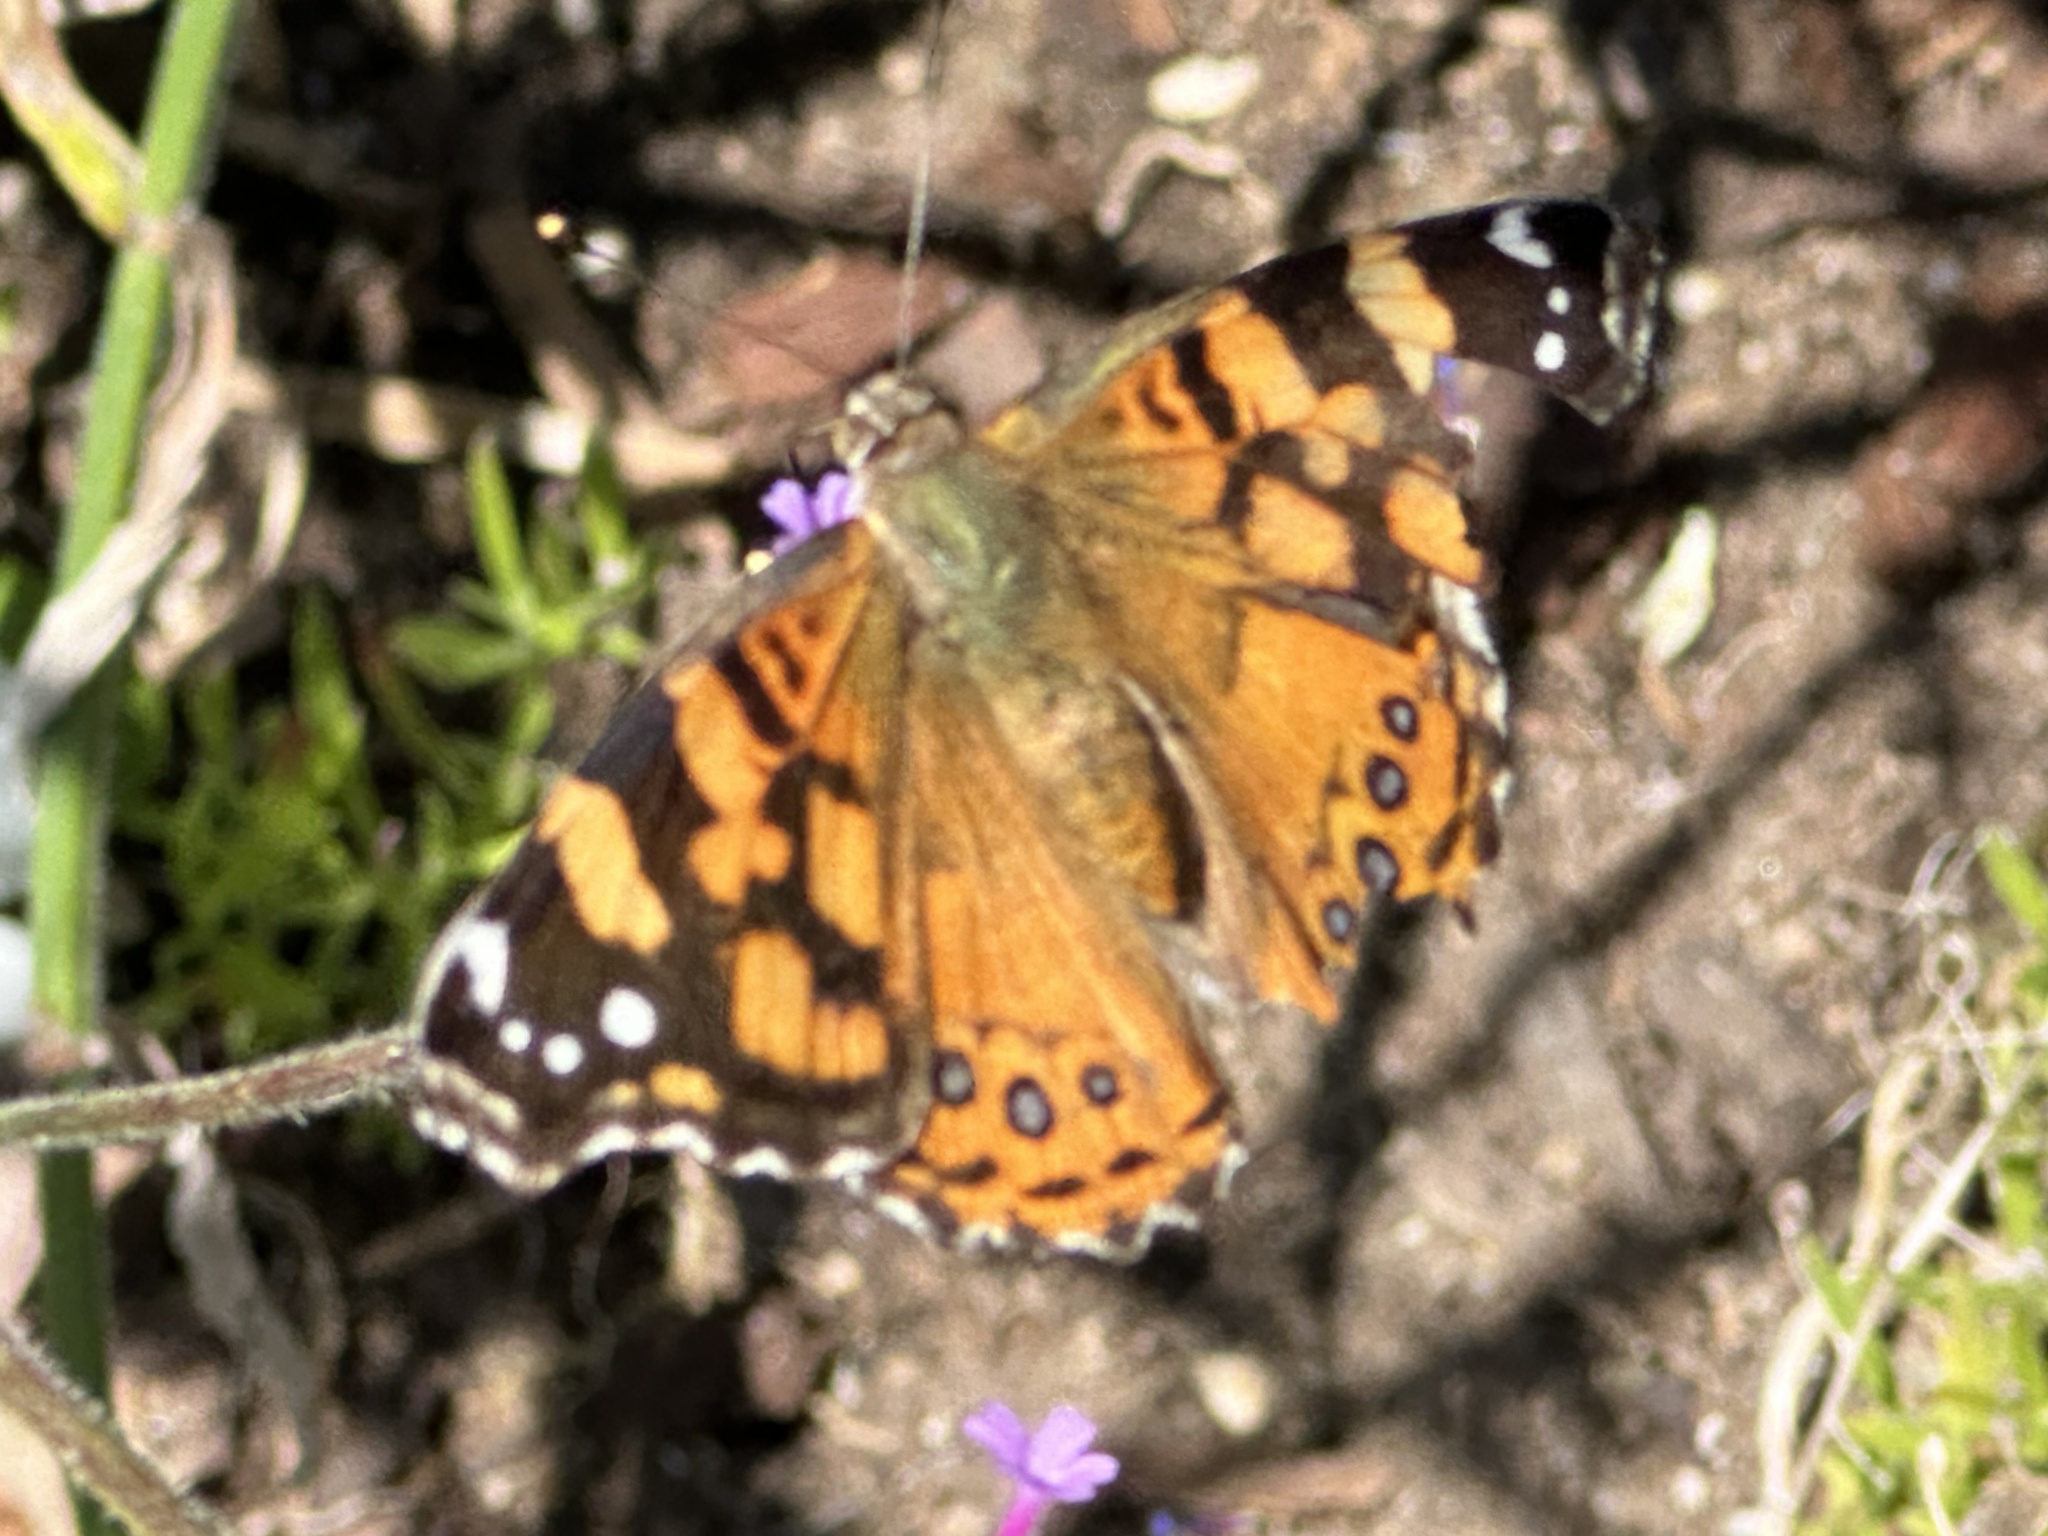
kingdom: Animalia
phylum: Arthropoda
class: Insecta
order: Lepidoptera
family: Nymphalidae
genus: Vanessa
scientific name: Vanessa annabella
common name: West coast lady
